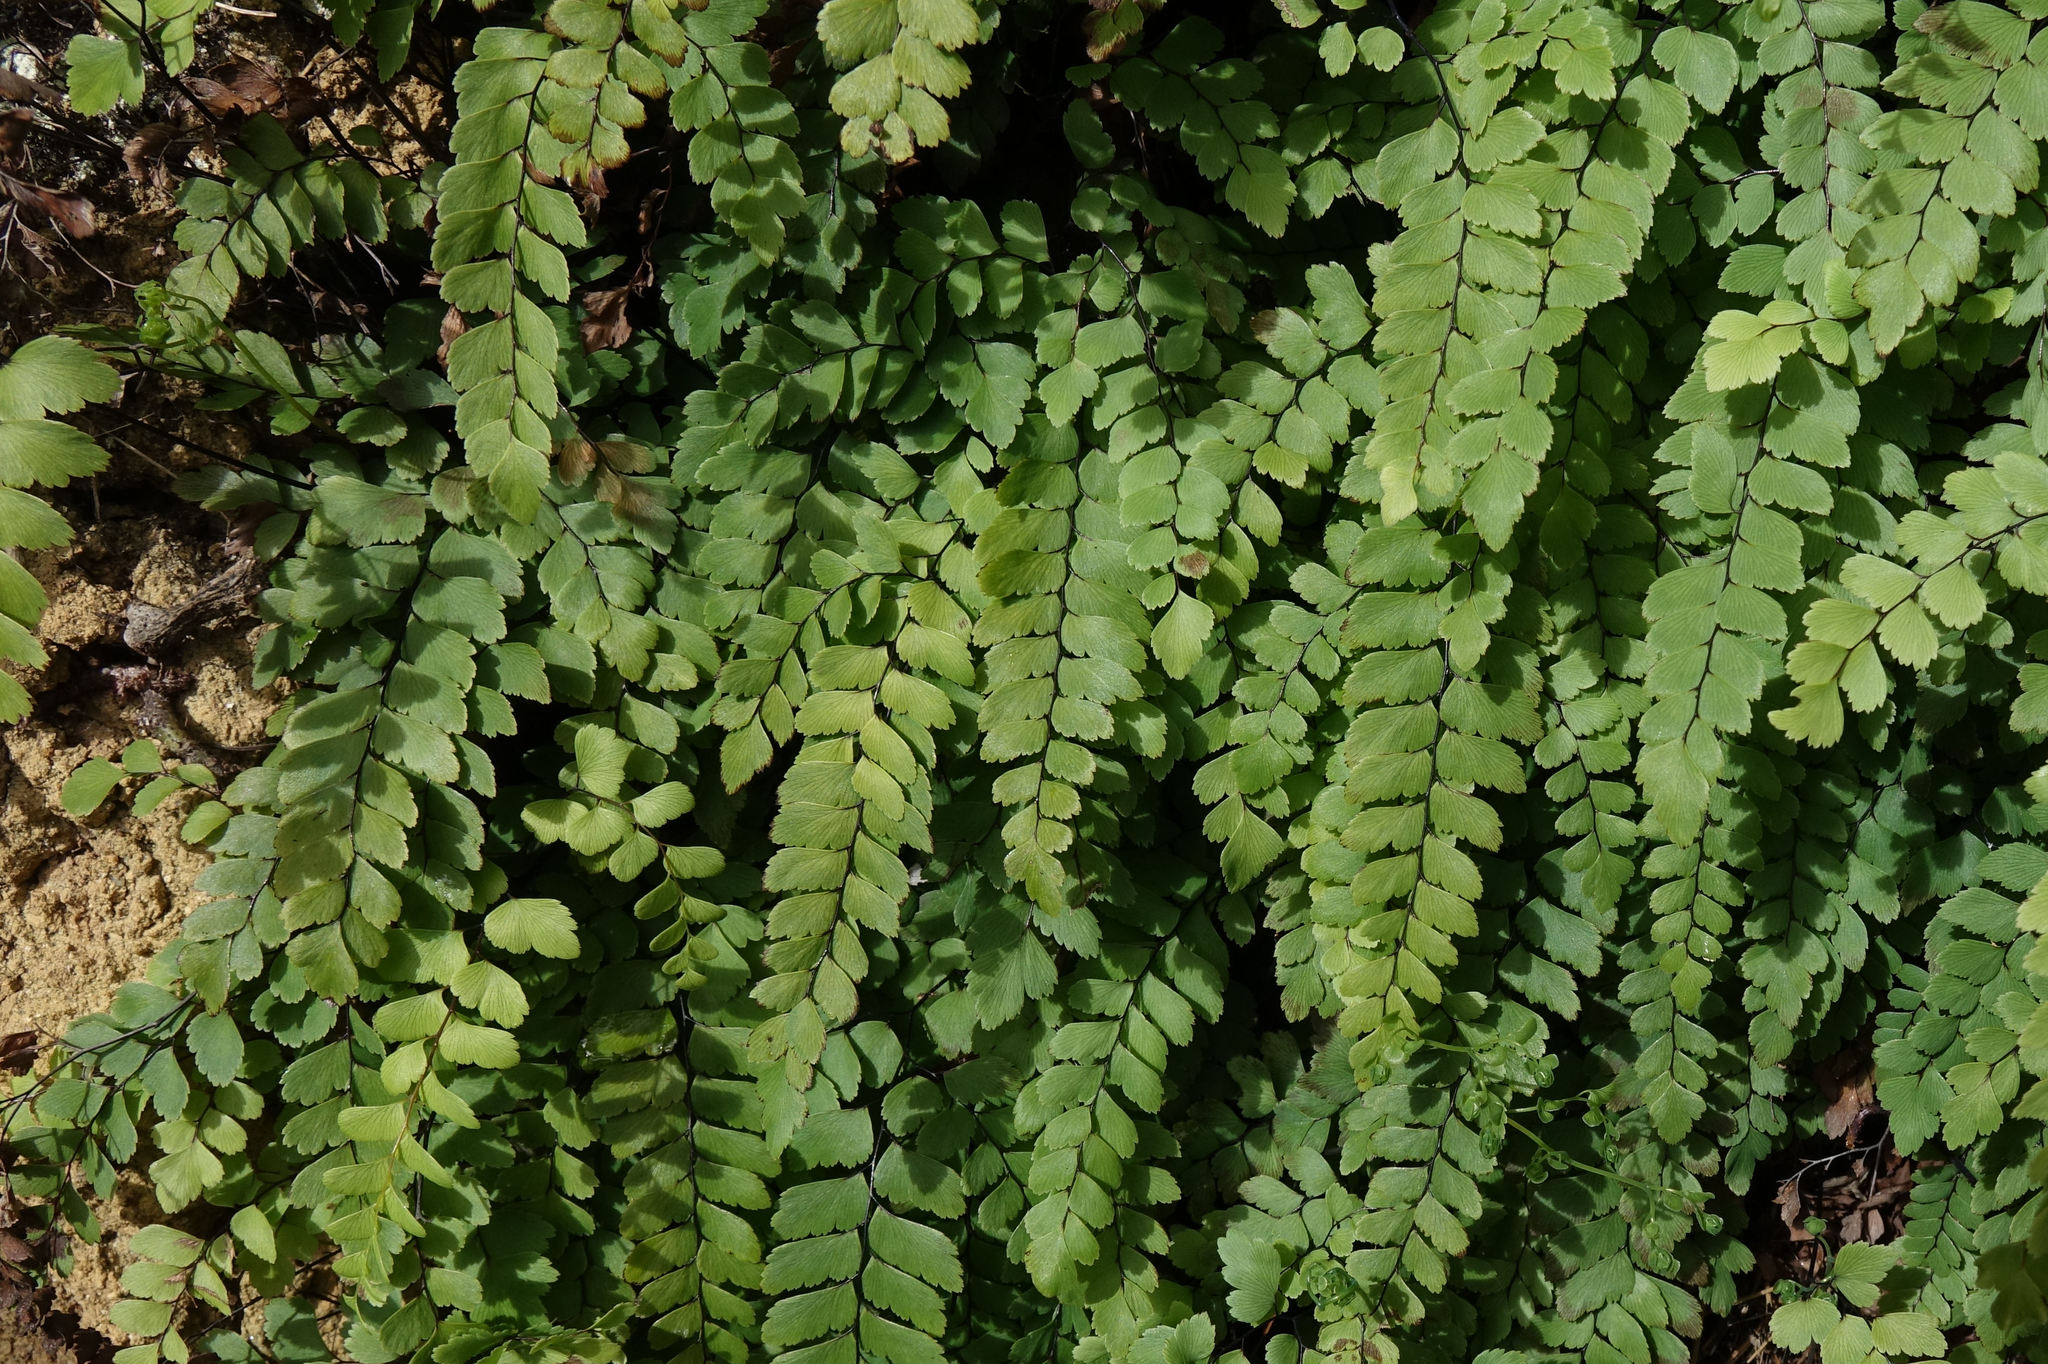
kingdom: Plantae
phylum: Tracheophyta
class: Polypodiopsida
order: Polypodiales
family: Pteridaceae
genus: Adiantum
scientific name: Adiantum cunninghamii
